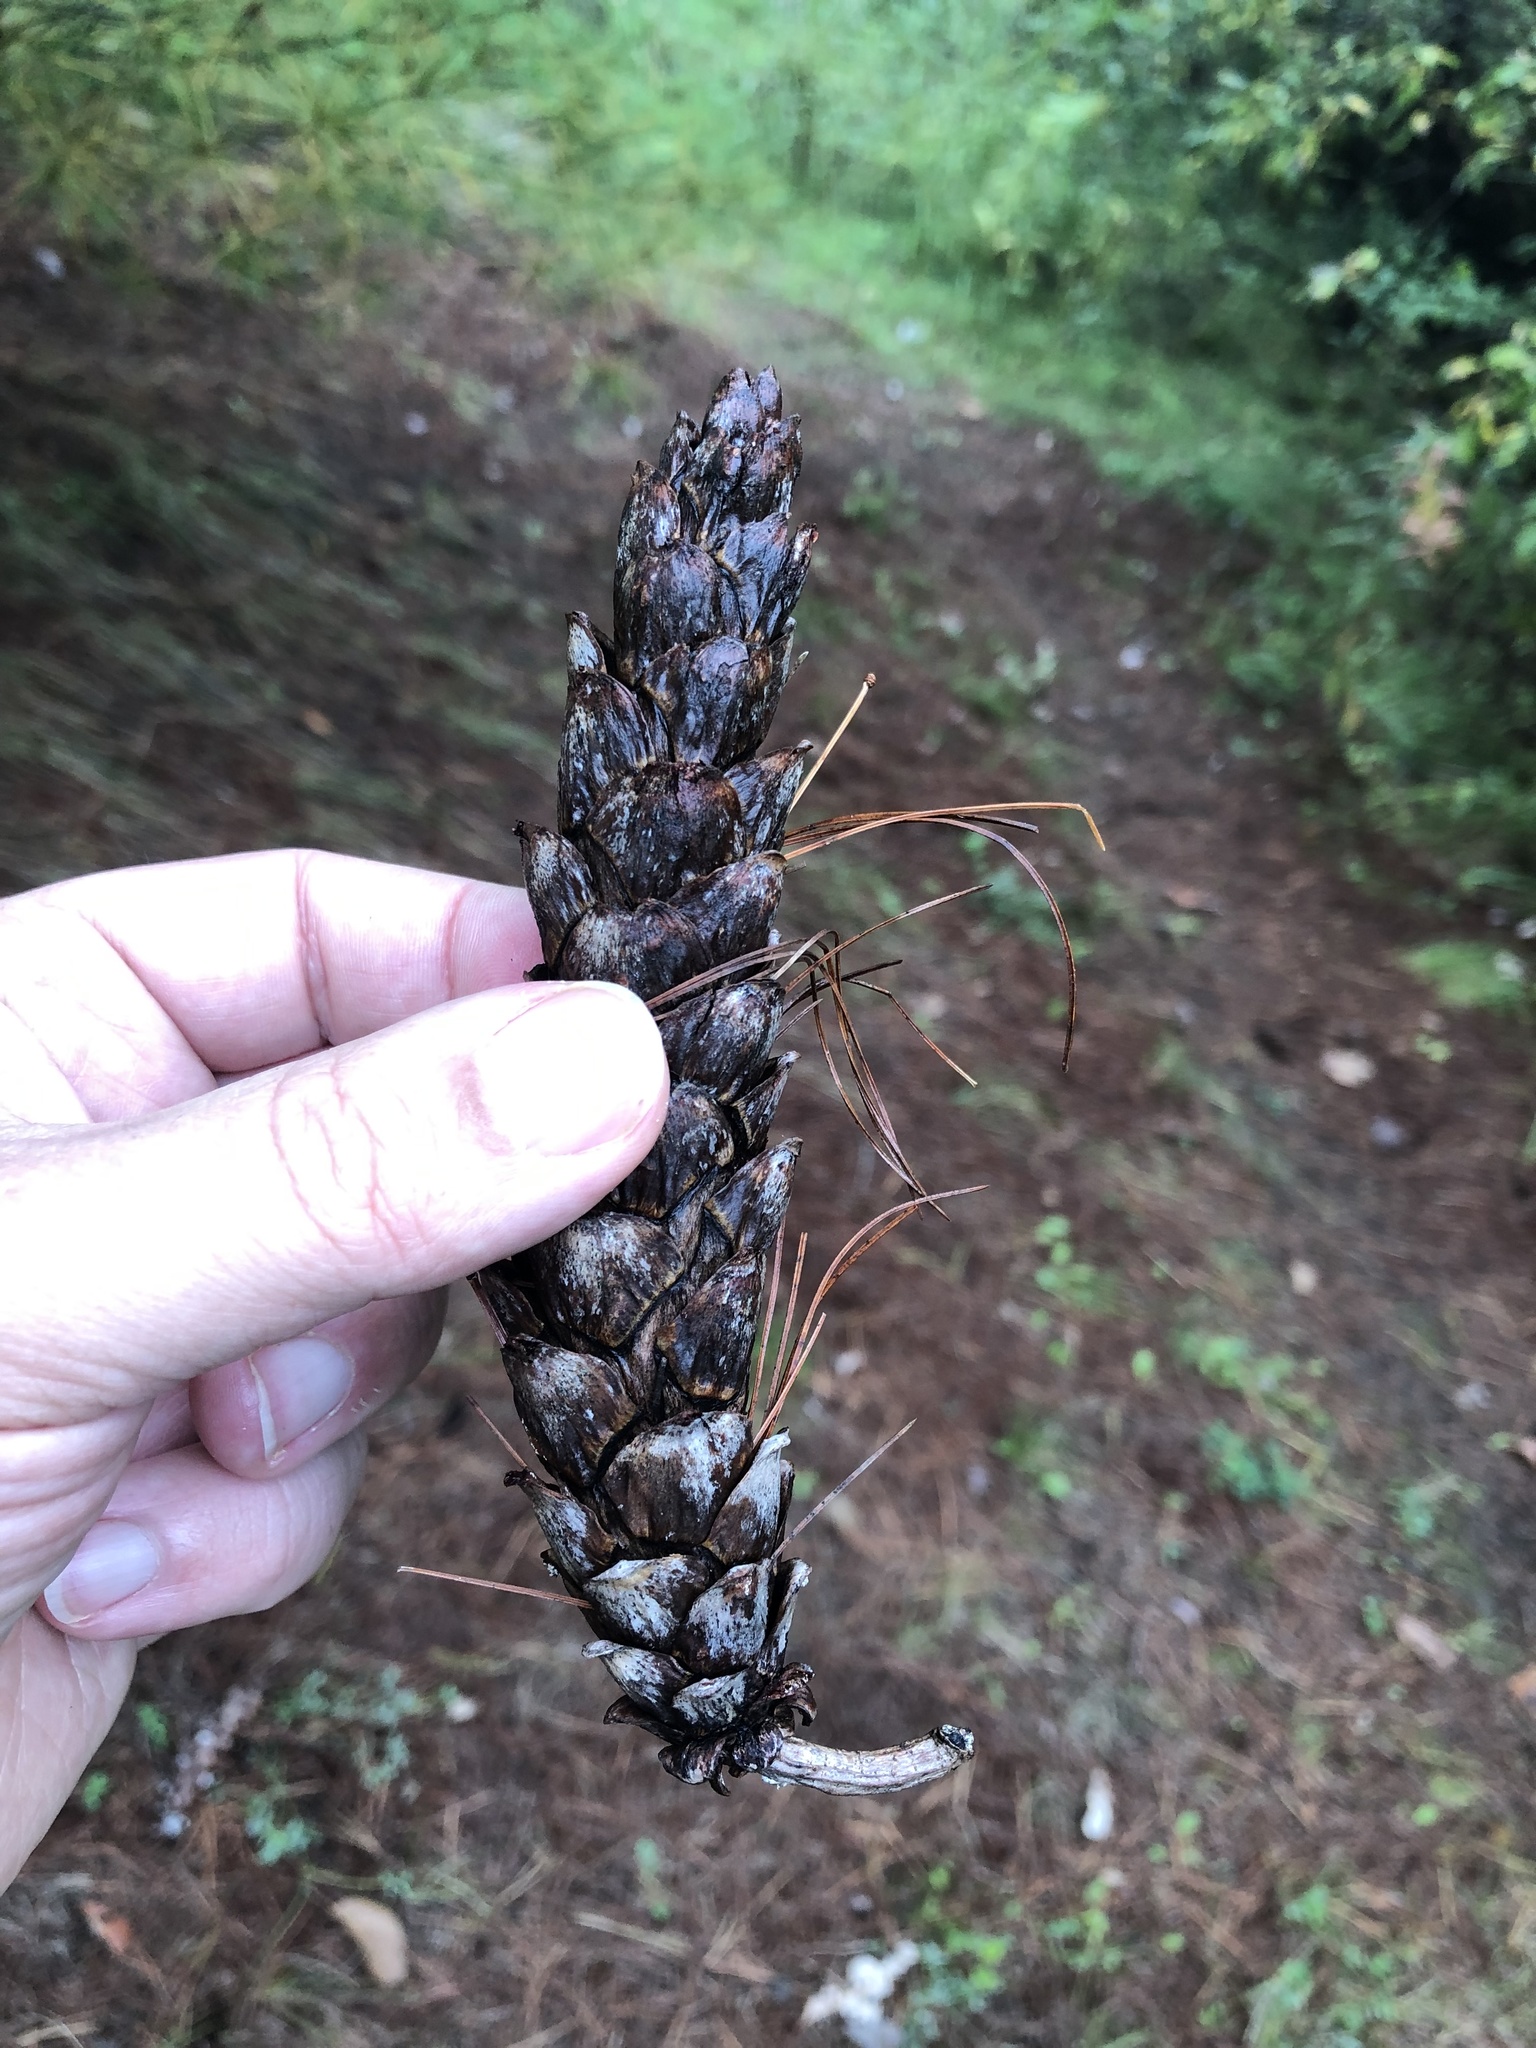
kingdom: Plantae
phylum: Tracheophyta
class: Pinopsida
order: Pinales
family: Pinaceae
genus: Pinus
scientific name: Pinus strobus
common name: Weymouth pine
